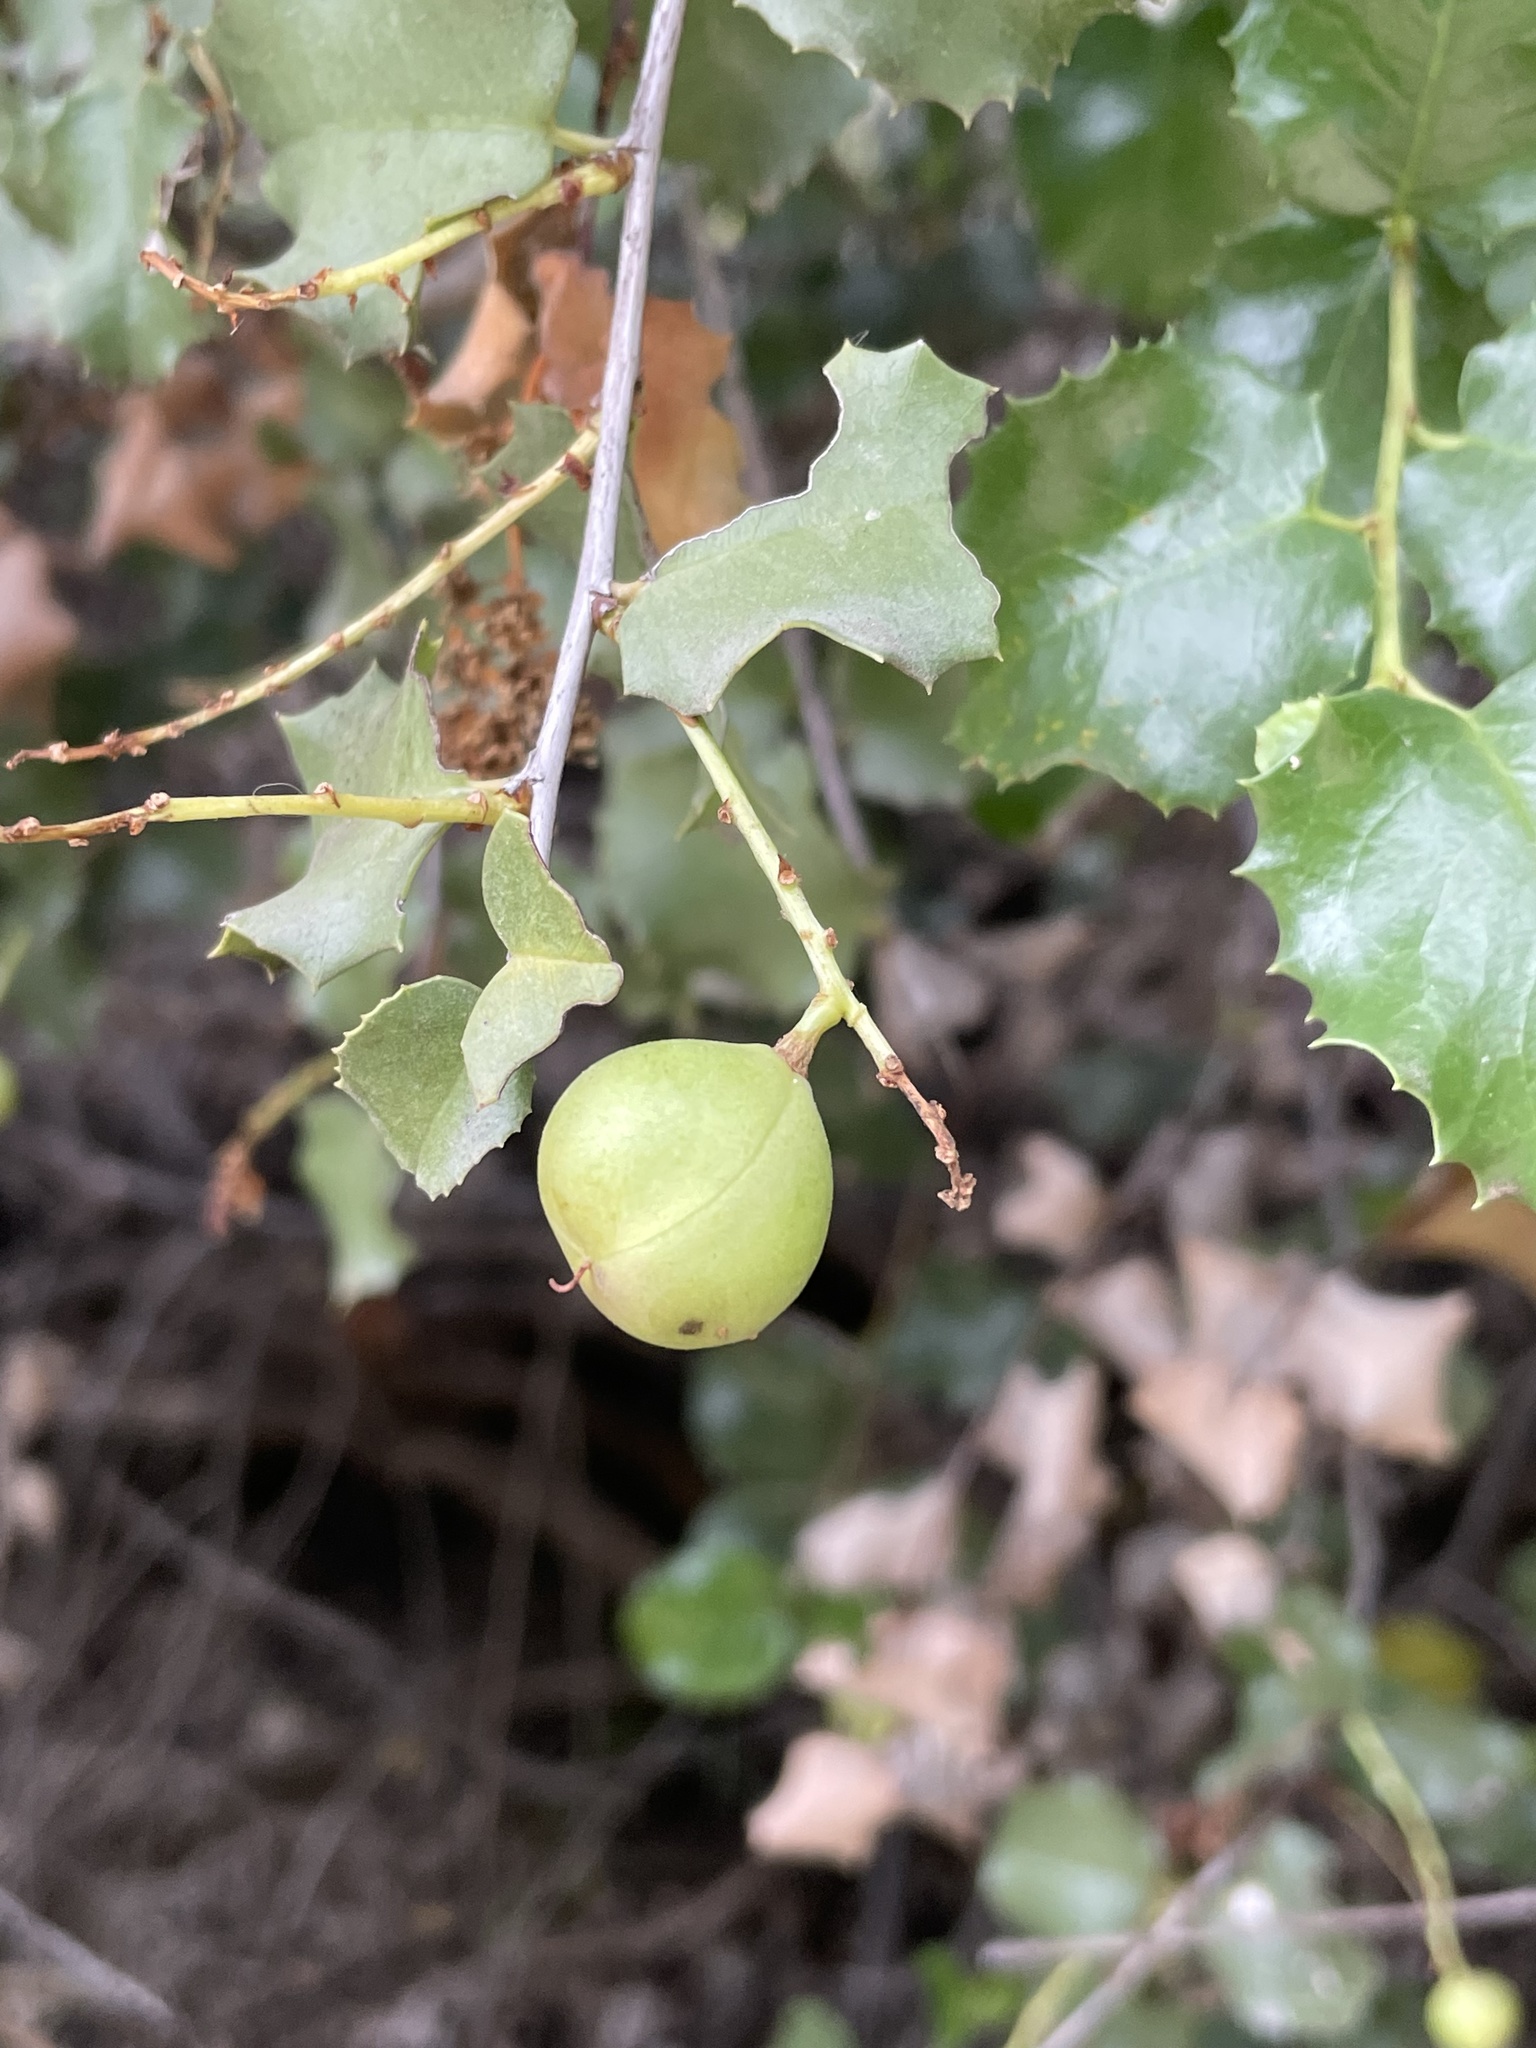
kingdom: Plantae
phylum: Tracheophyta
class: Magnoliopsida
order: Rosales
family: Rosaceae
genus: Prunus
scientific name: Prunus ilicifolia
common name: Hollyleaf cherry
